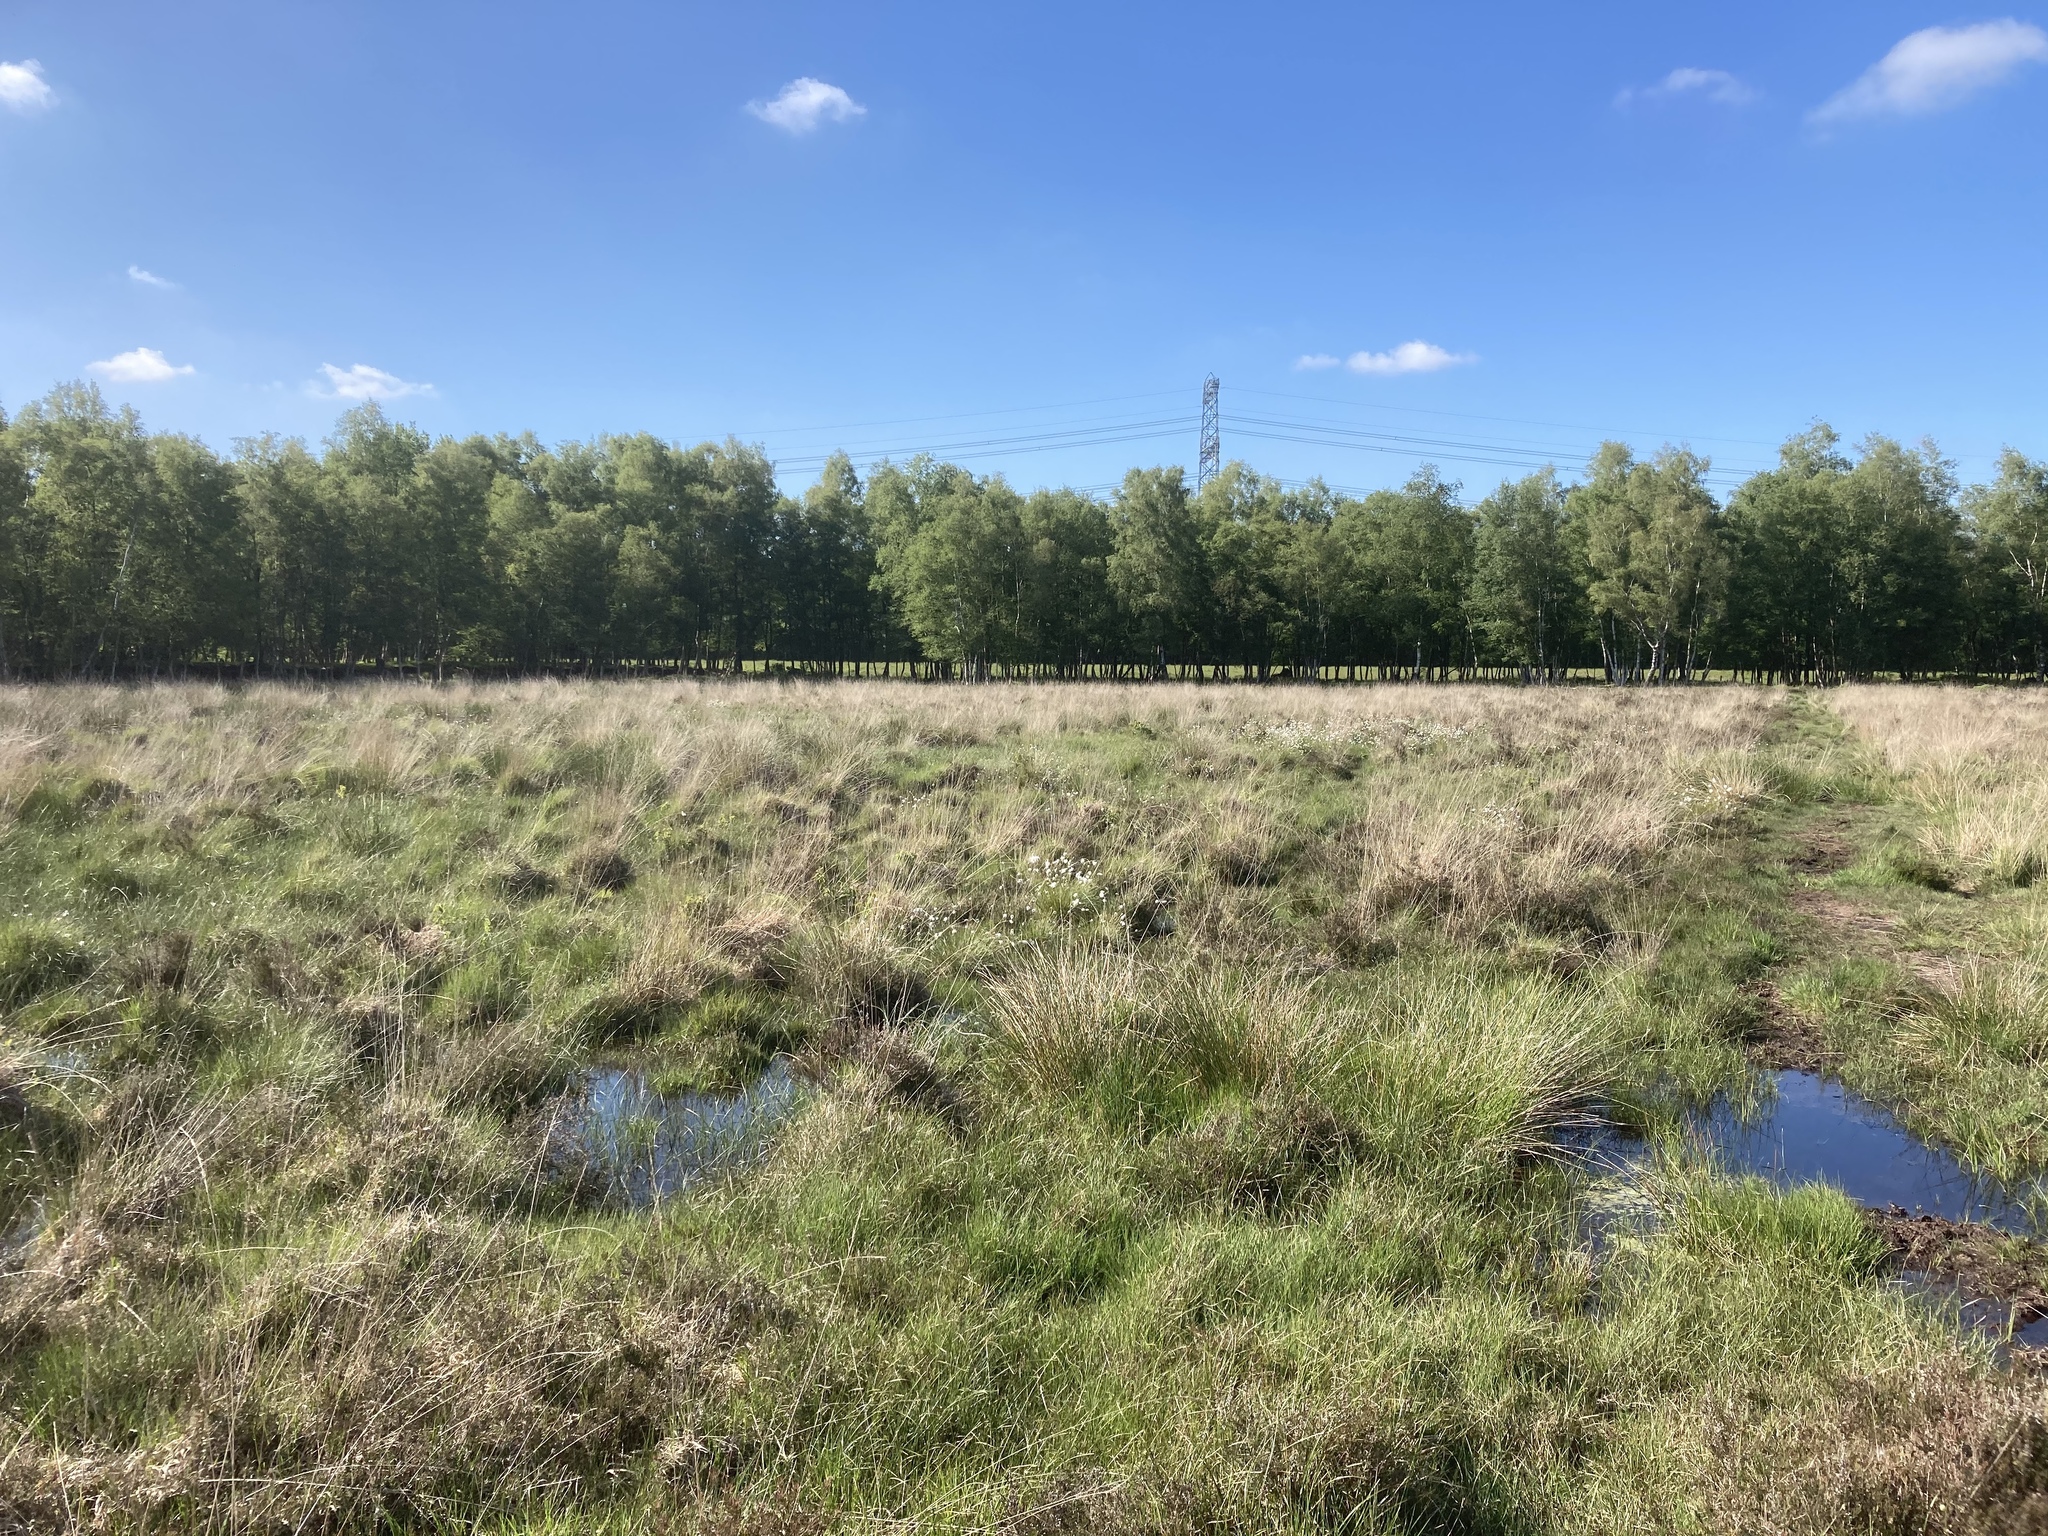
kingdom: Plantae
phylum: Tracheophyta
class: Liliopsida
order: Poales
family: Cyperaceae
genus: Eriophorum
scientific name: Eriophorum vaginatum
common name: Hare's-tail cottongrass
